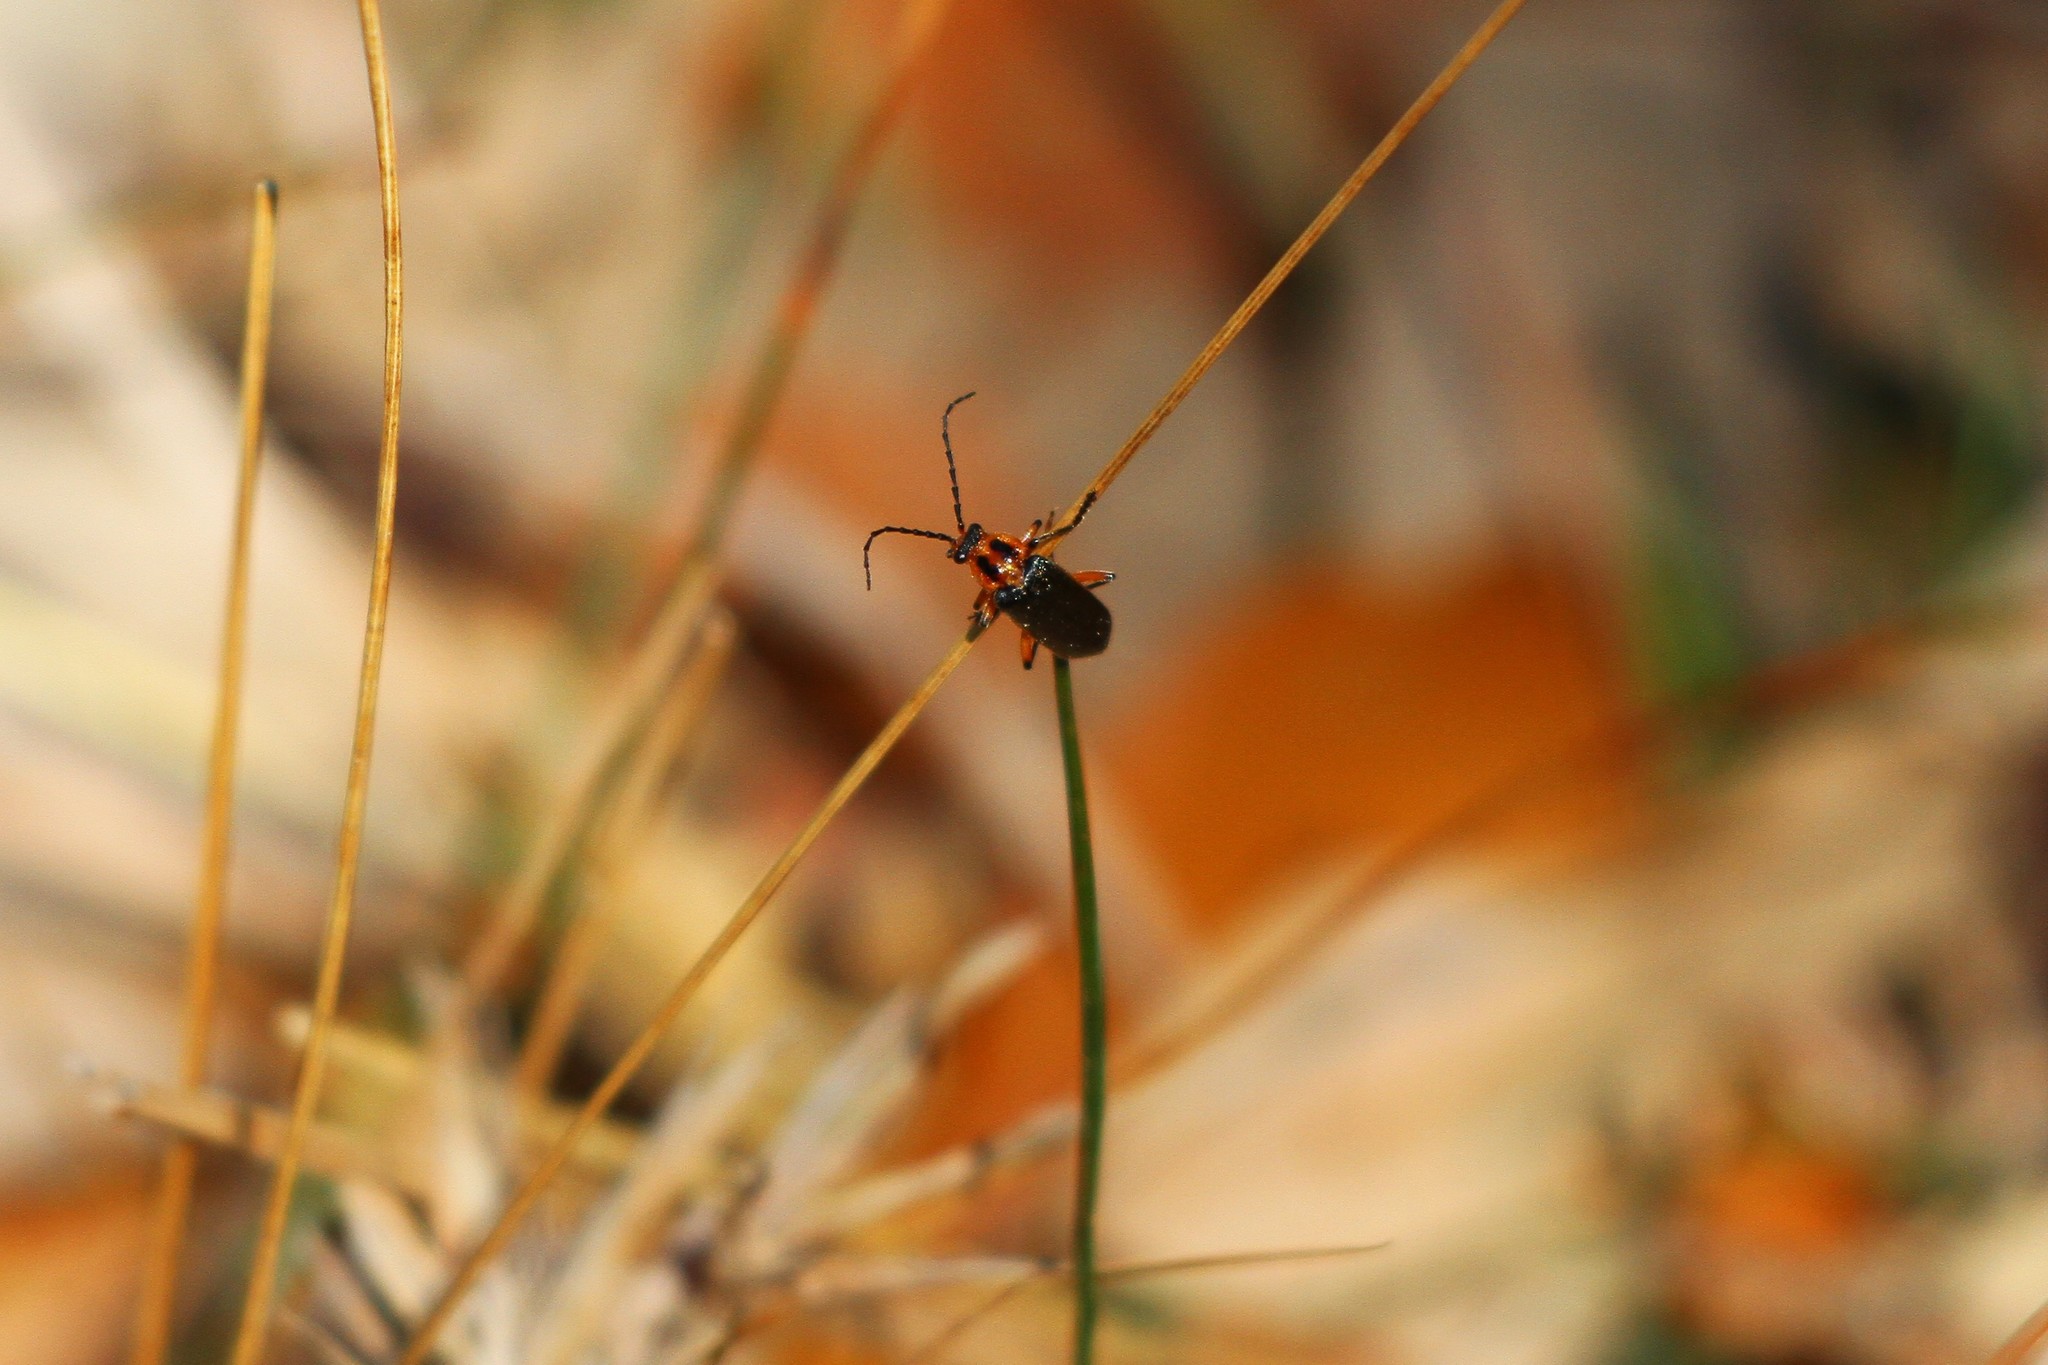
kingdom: Animalia
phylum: Arthropoda
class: Insecta
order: Coleoptera
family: Cantharidae
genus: Atalantycha
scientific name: Atalantycha bilineata
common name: Two-lined leatherwing
